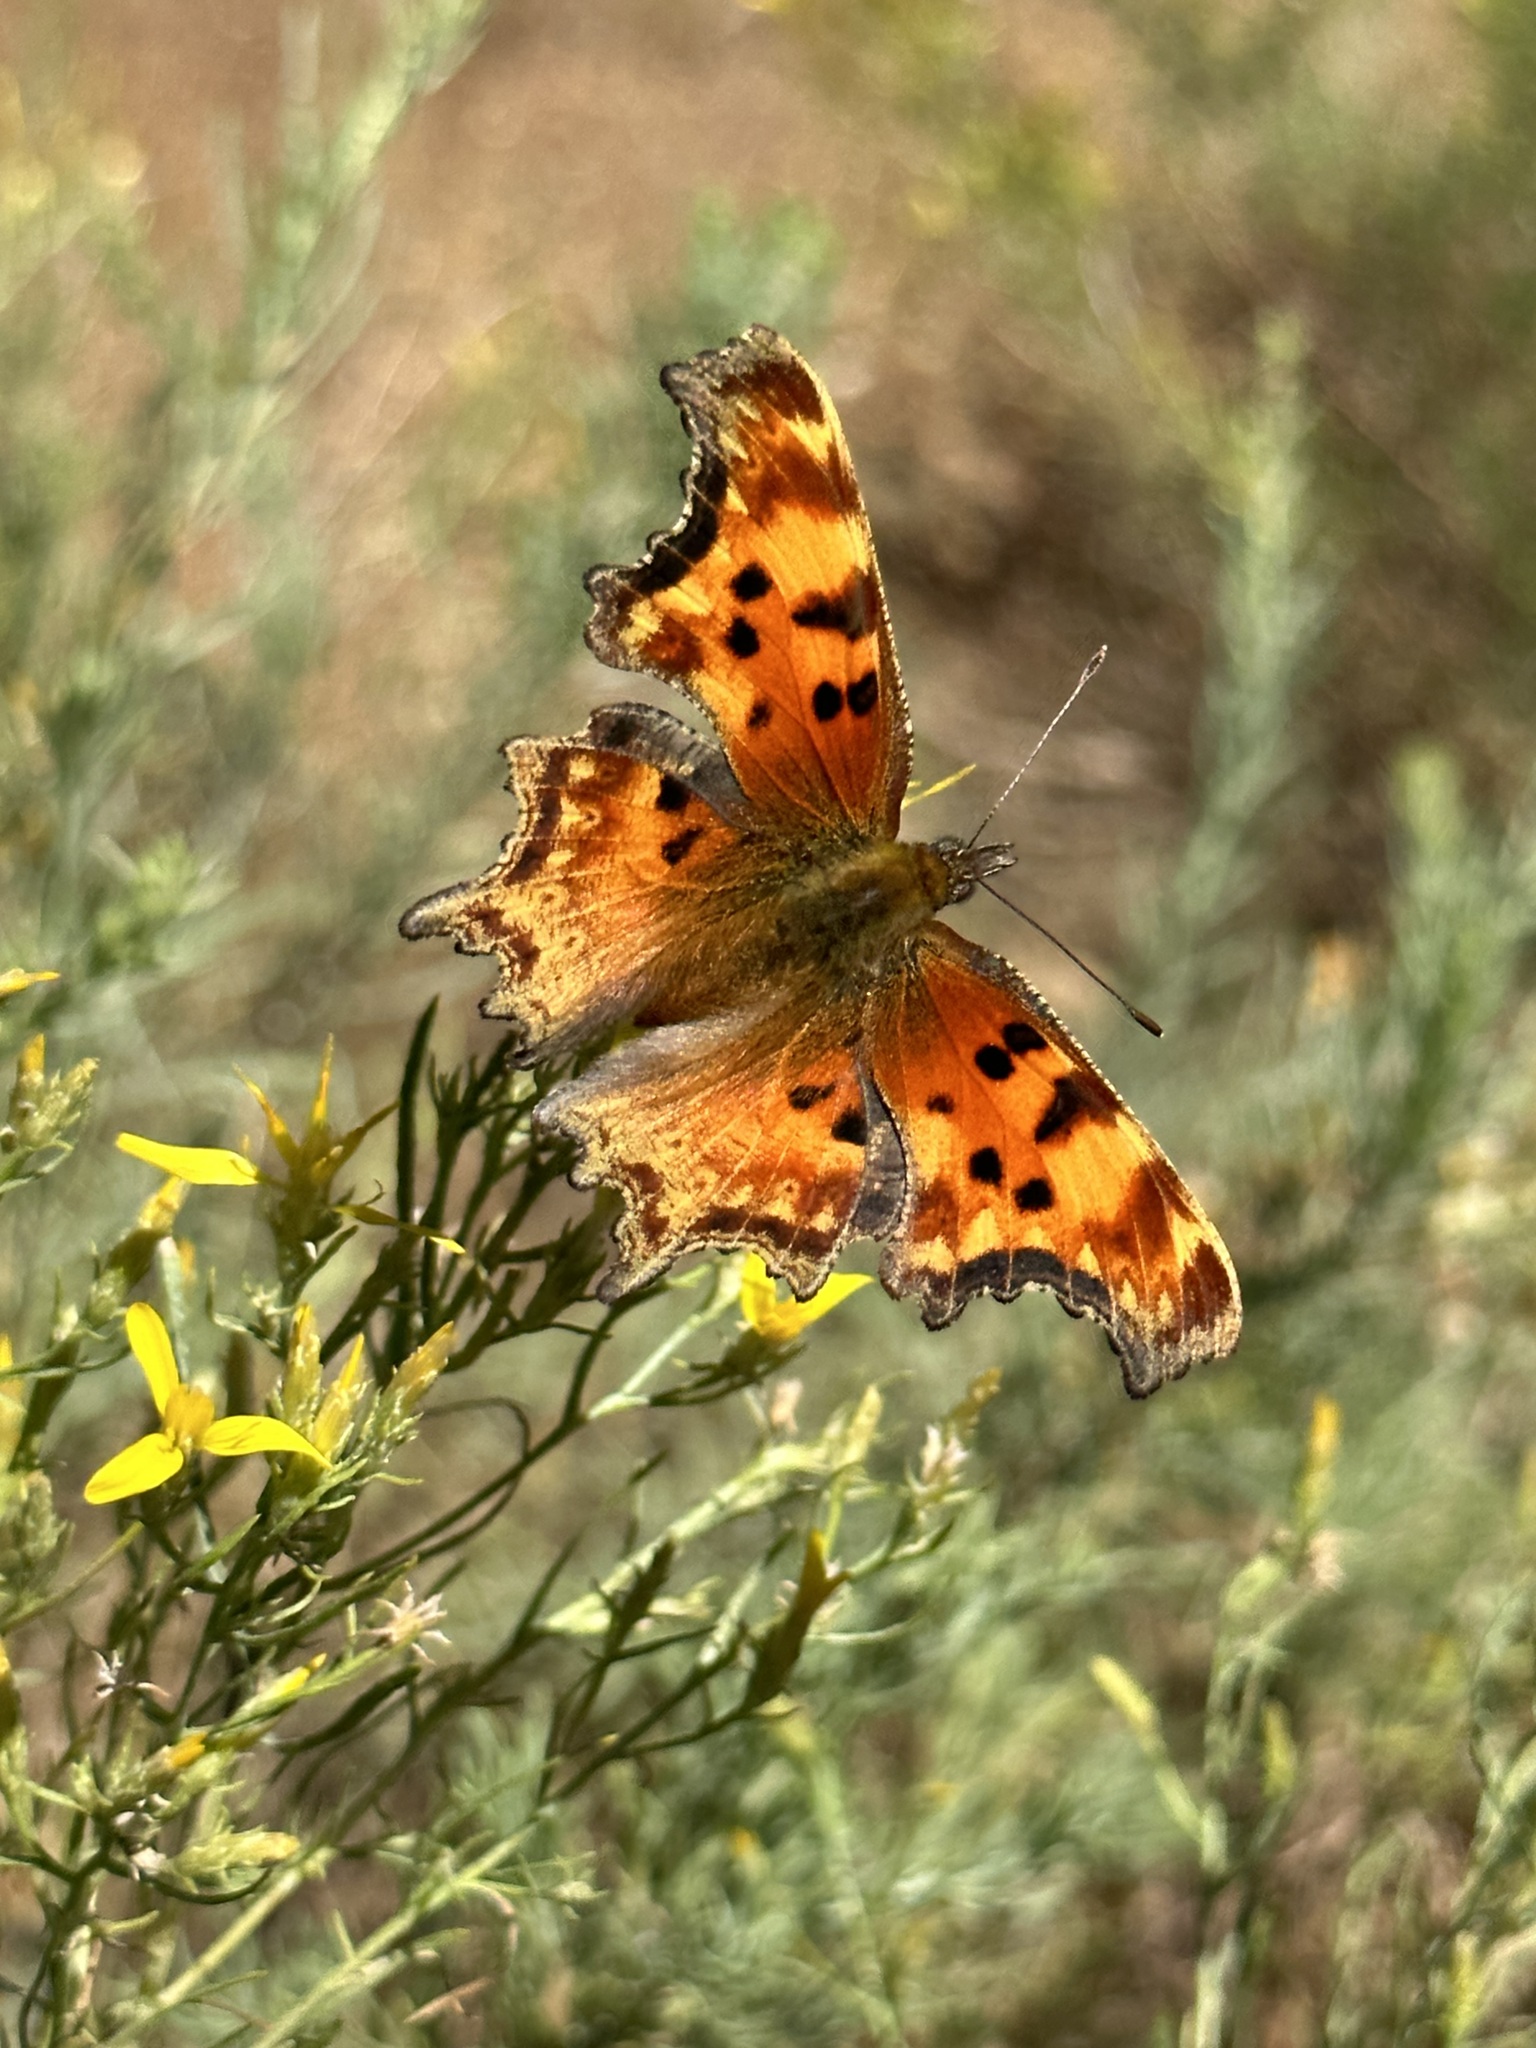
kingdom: Animalia
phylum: Arthropoda
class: Insecta
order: Lepidoptera
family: Nymphalidae
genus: Polygonia
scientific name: Polygonia gracilis
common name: Hoary comma
